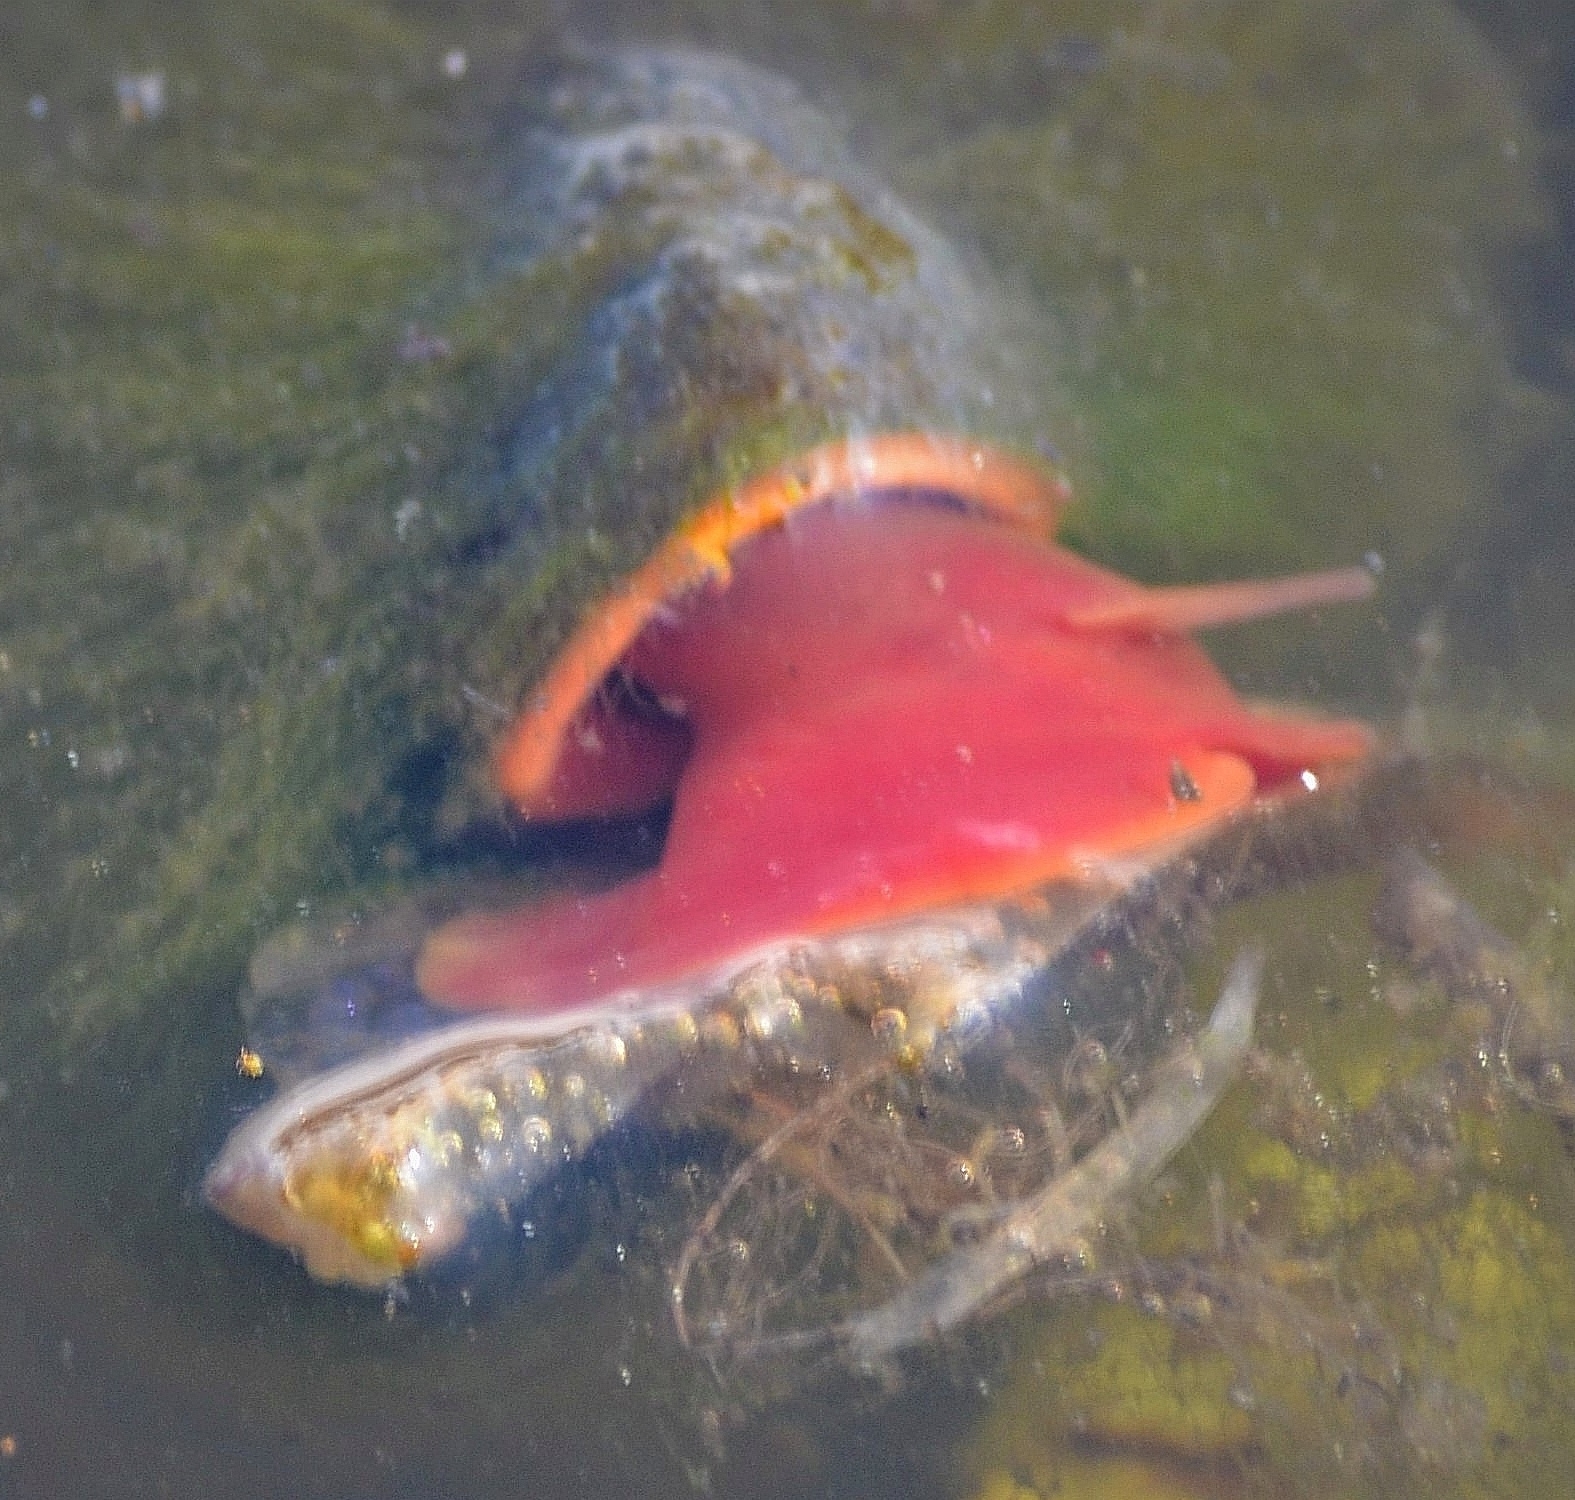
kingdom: Animalia
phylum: Mollusca
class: Gastropoda
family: Planorbidae
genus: Planorbarius
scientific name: Planorbarius corneus
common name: Great ramshorn
